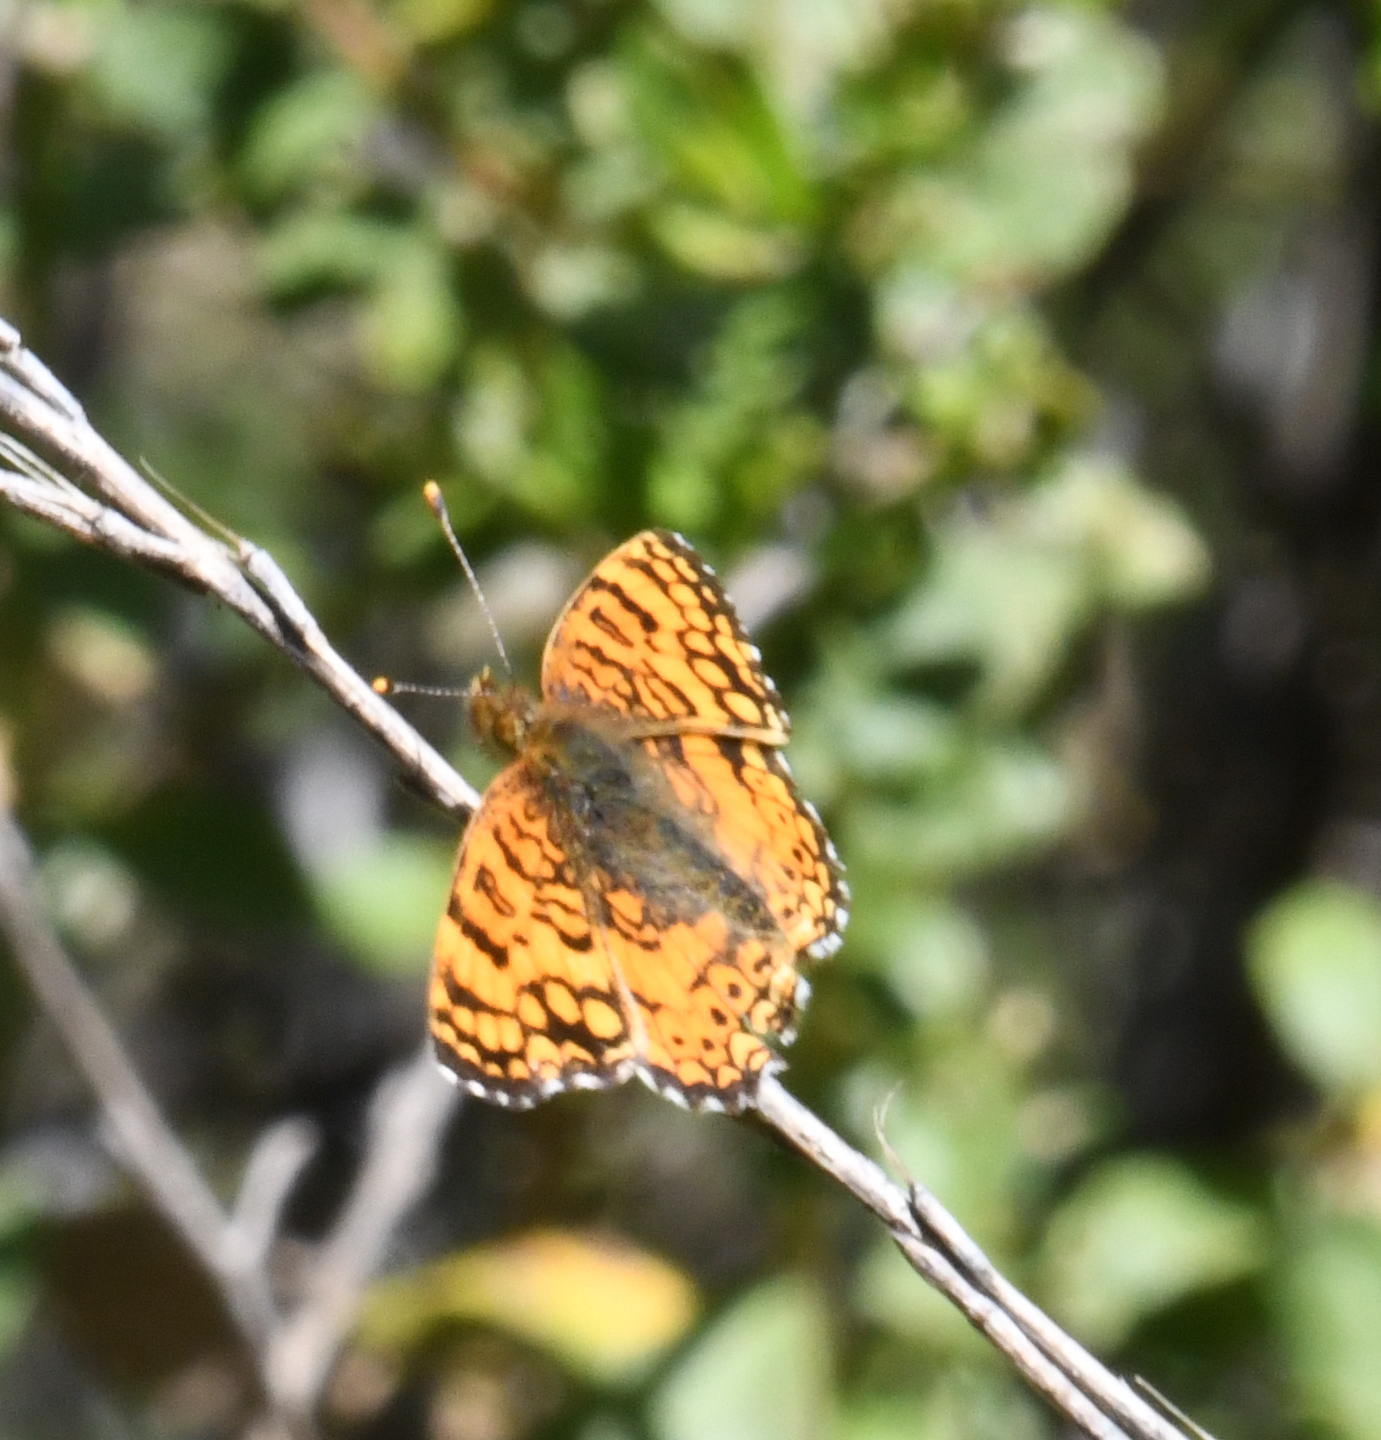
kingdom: Animalia
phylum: Arthropoda
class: Insecta
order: Lepidoptera
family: Nymphalidae
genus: Eresia
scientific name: Eresia aveyrona
